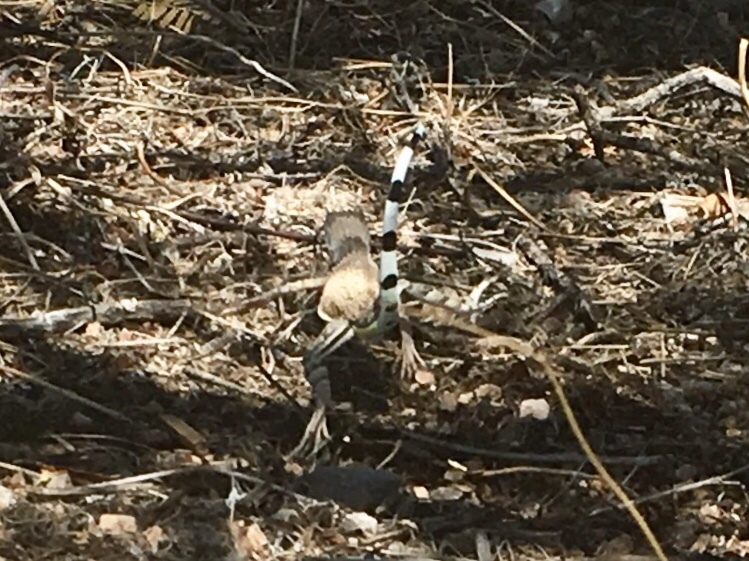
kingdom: Animalia
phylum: Chordata
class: Squamata
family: Phrynosomatidae
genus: Callisaurus
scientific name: Callisaurus draconoides
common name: Zebra-tailed lizard
